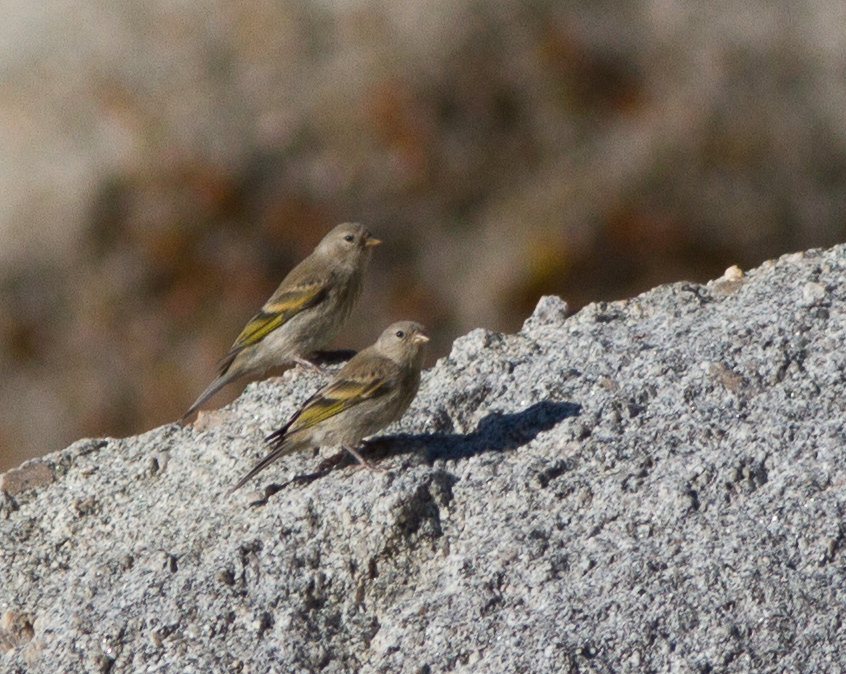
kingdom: Animalia
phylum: Chordata
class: Aves
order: Passeriformes
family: Fringillidae
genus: Spinus
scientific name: Spinus lawrencei
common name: Lawrence's goldfinch
